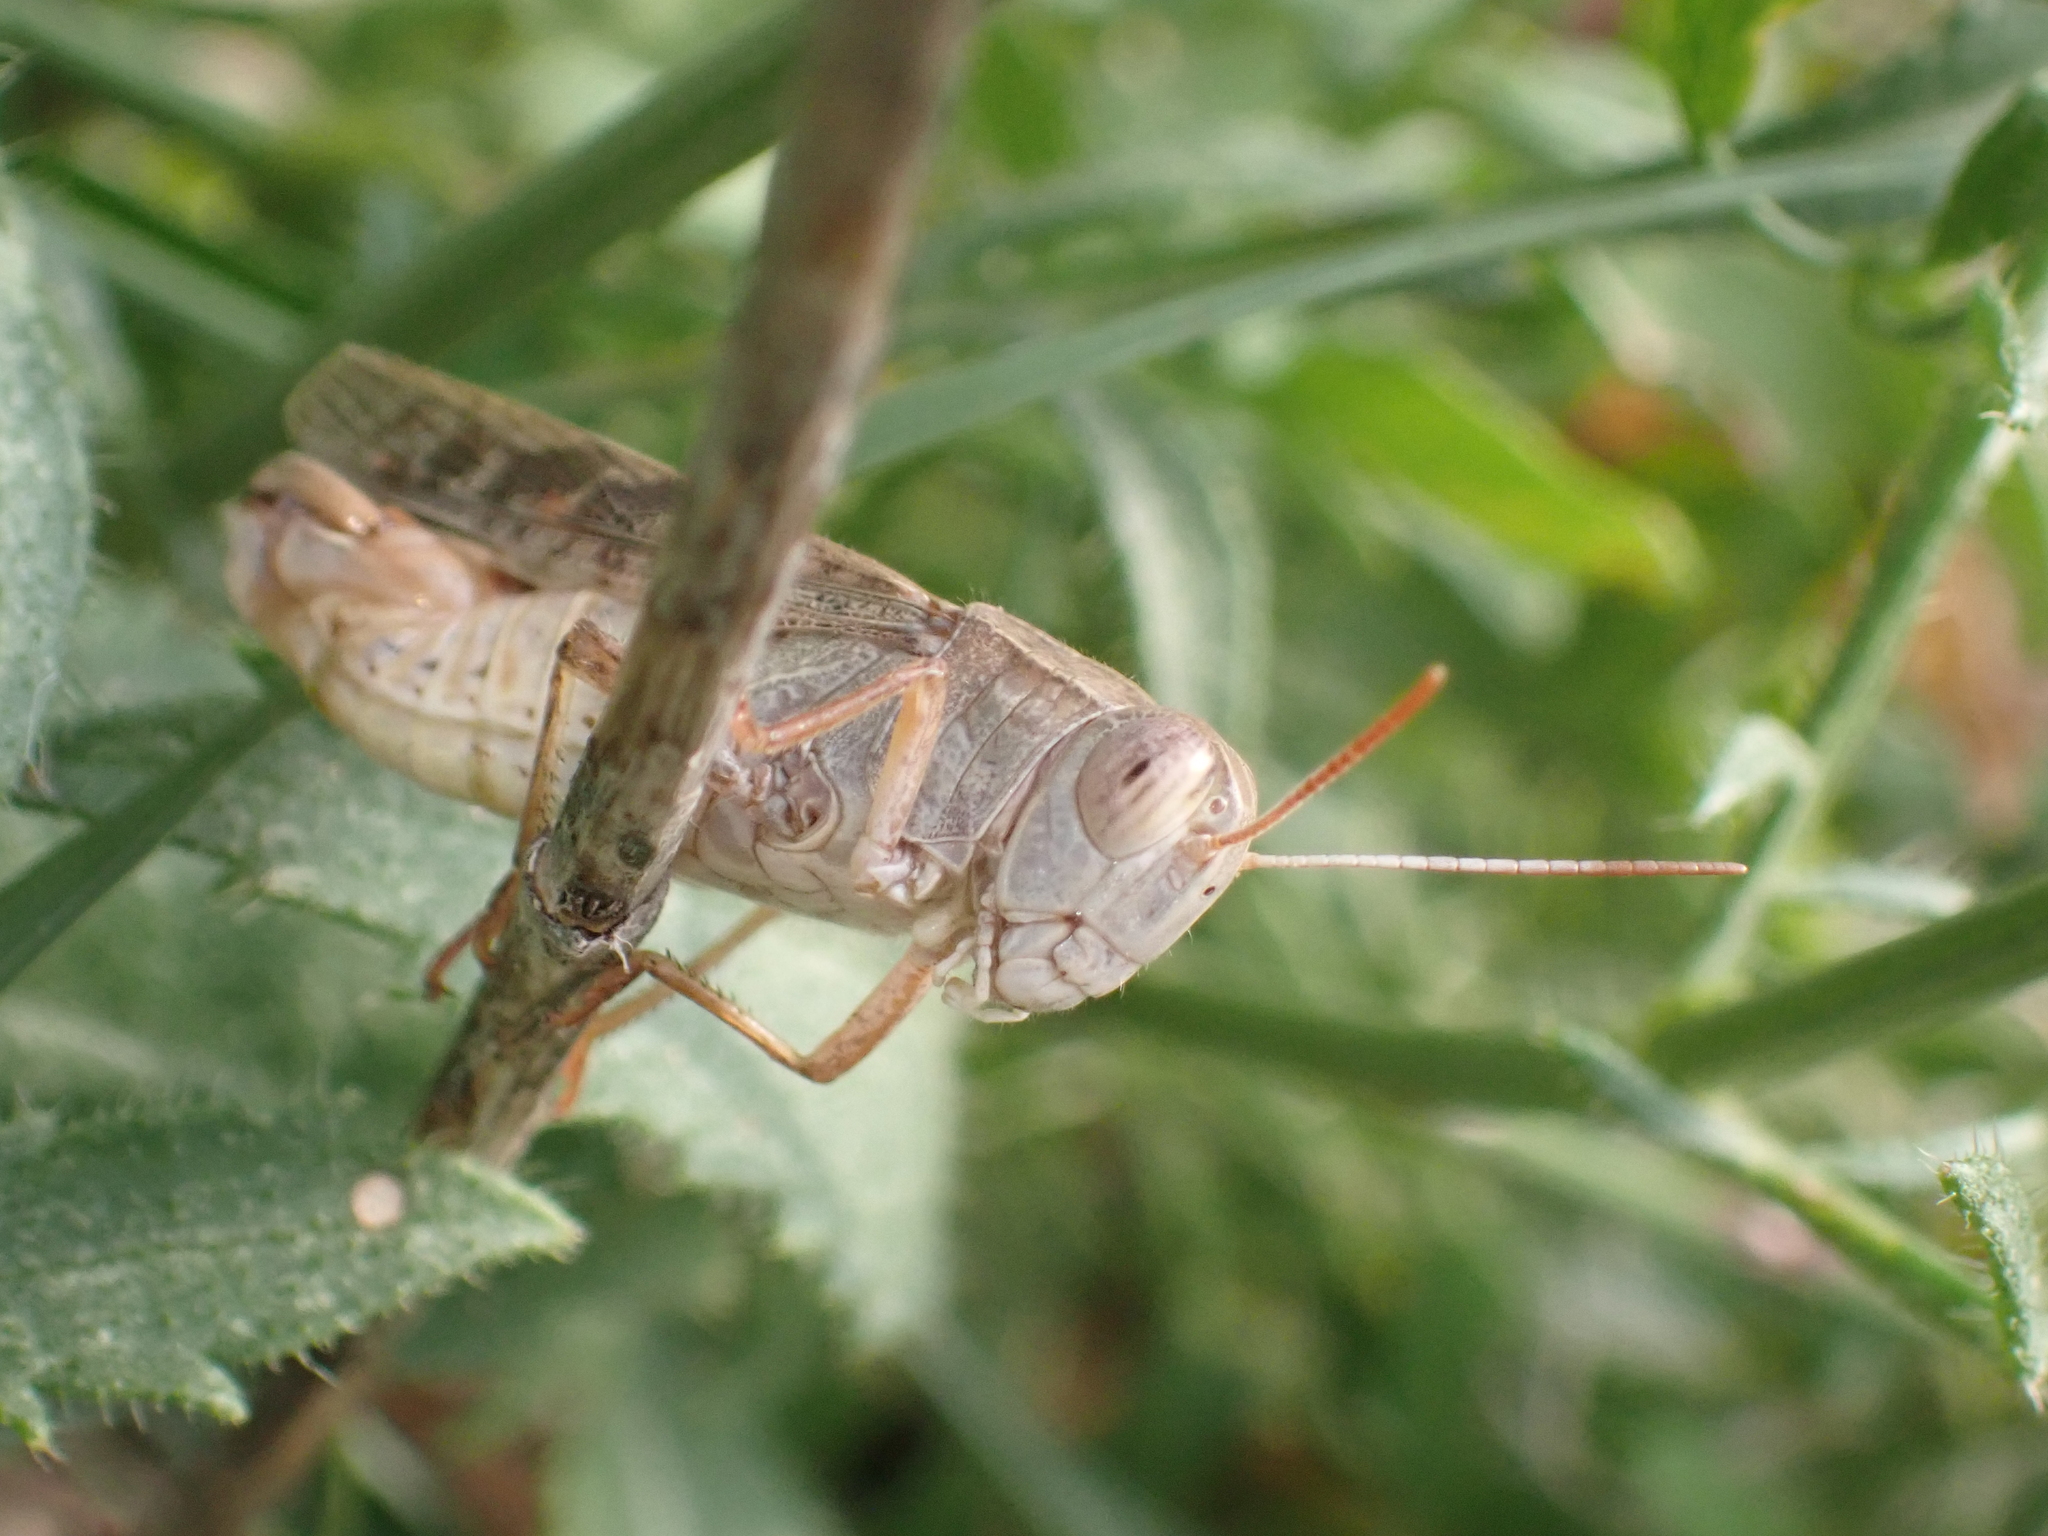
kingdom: Animalia
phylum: Arthropoda
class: Insecta
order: Orthoptera
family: Acrididae
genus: Calliptamus
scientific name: Calliptamus italicus
